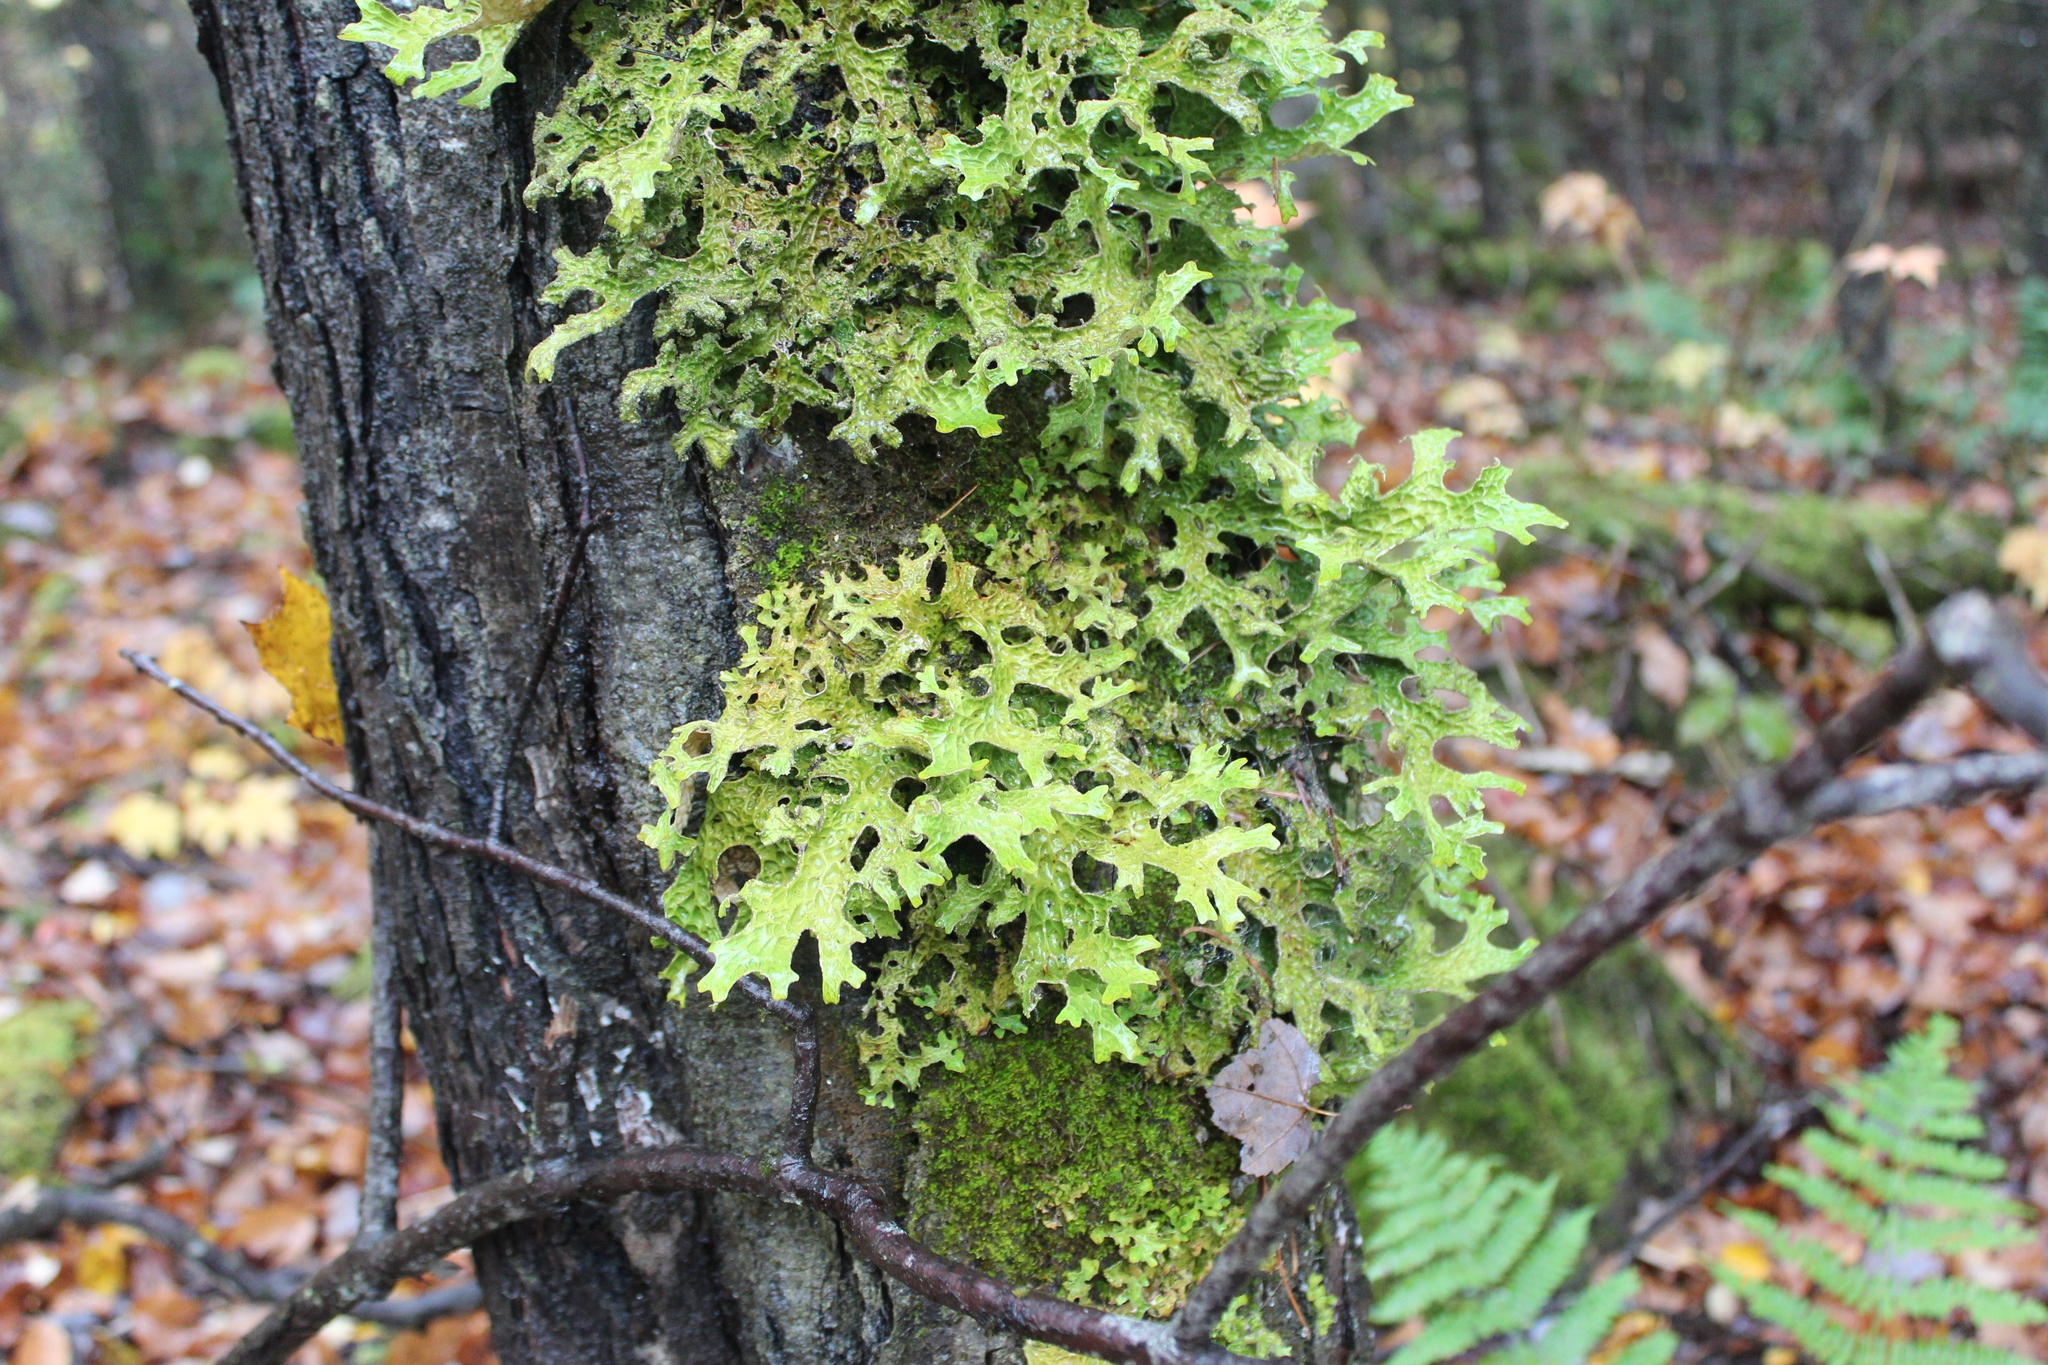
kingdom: Fungi
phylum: Ascomycota
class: Lecanoromycetes
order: Peltigerales
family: Lobariaceae
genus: Lobaria
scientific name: Lobaria pulmonaria
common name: Lungwort
